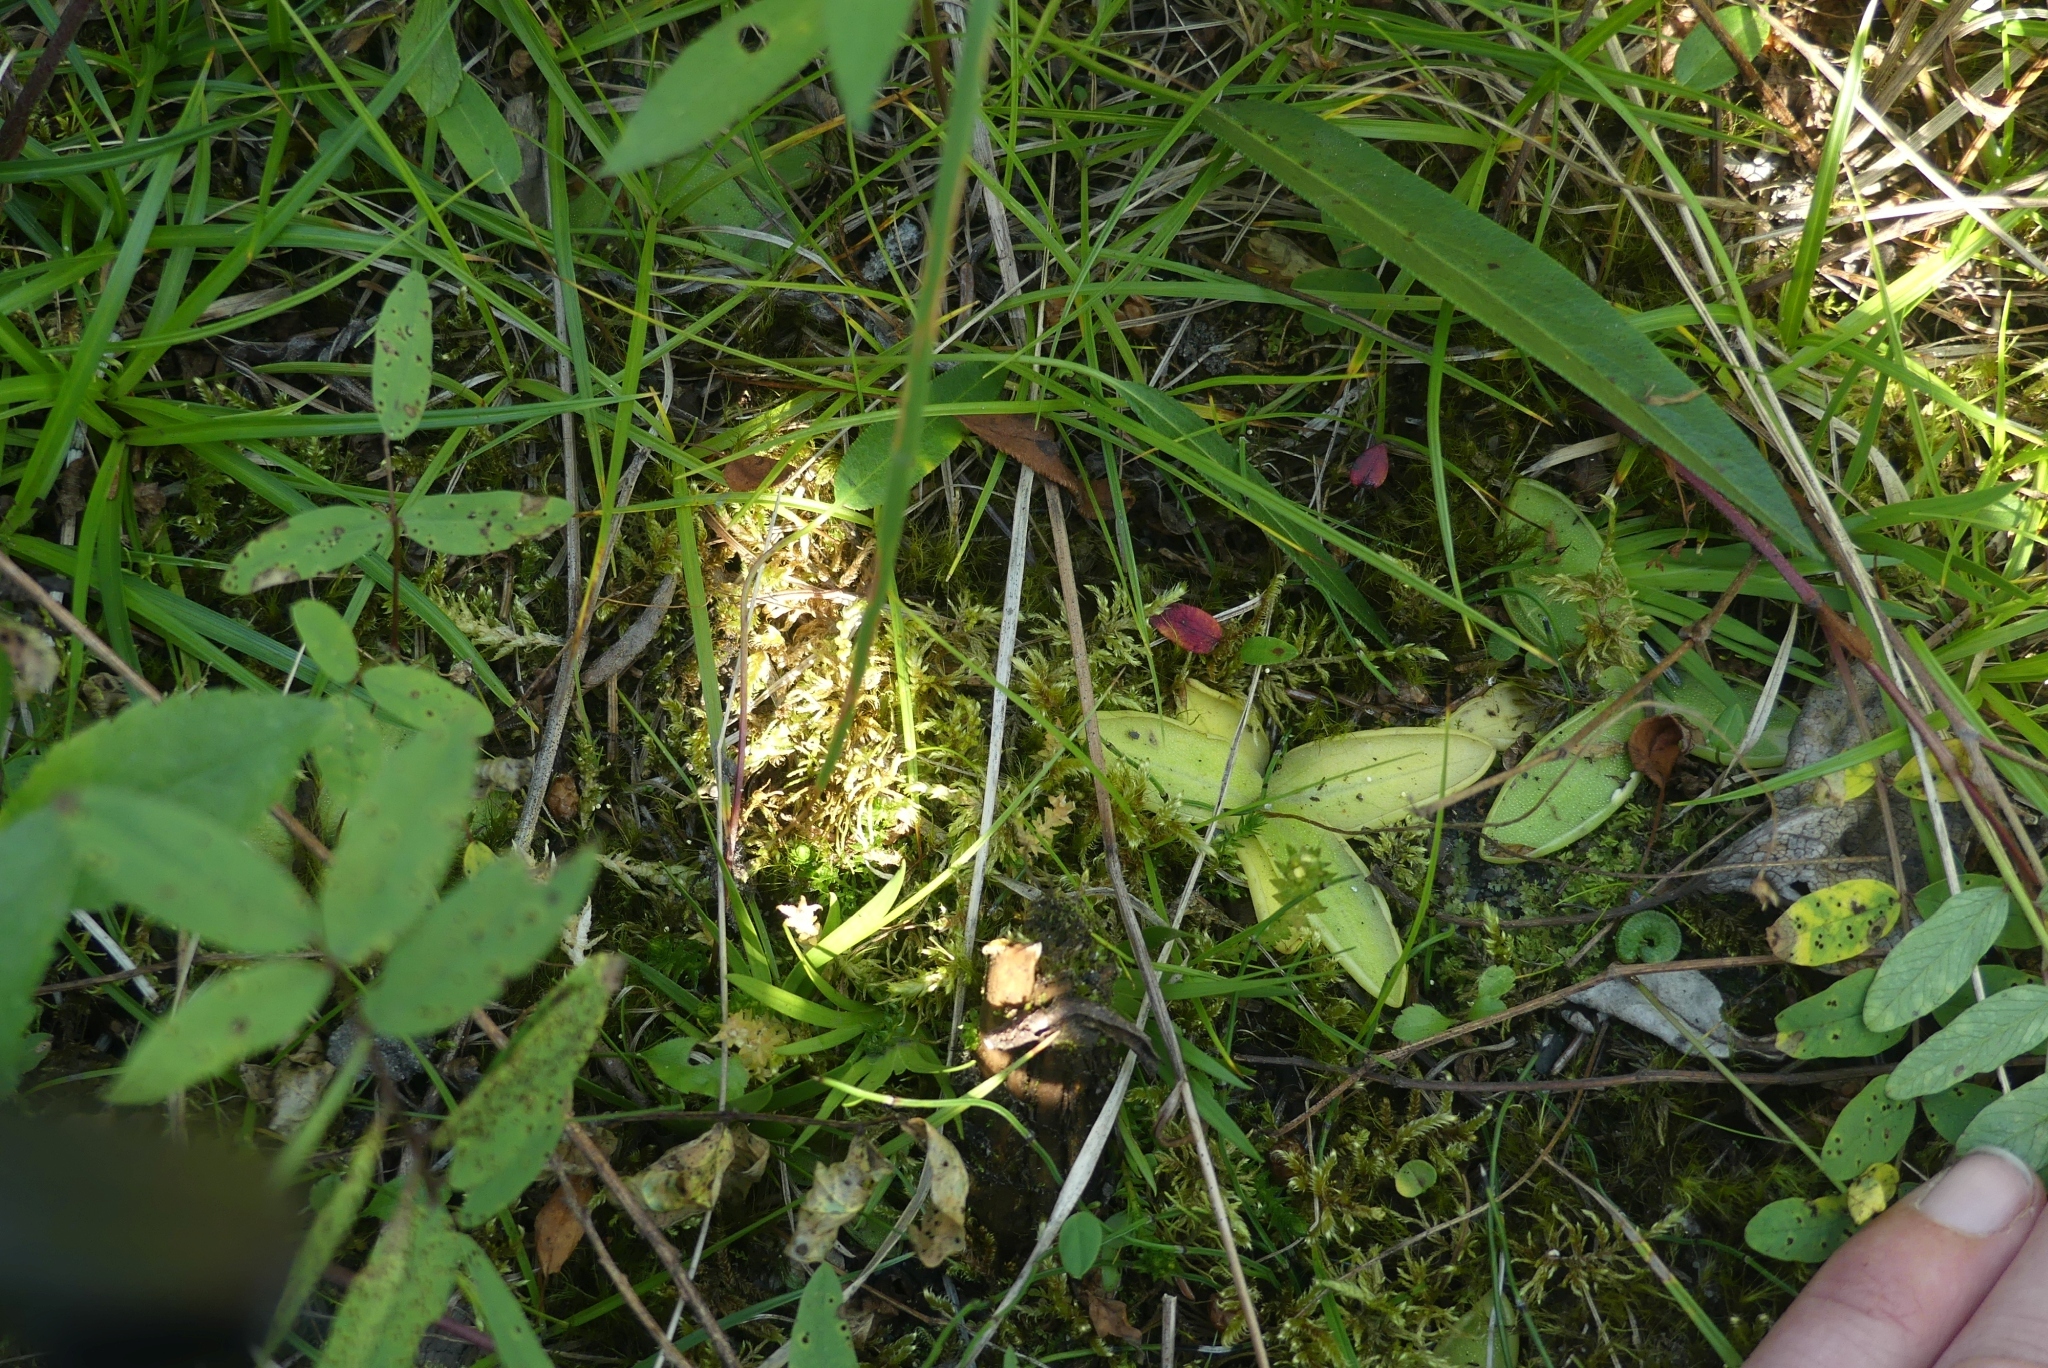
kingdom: Plantae
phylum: Tracheophyta
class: Magnoliopsida
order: Lamiales
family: Lentibulariaceae
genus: Pinguicula
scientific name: Pinguicula macroceras
